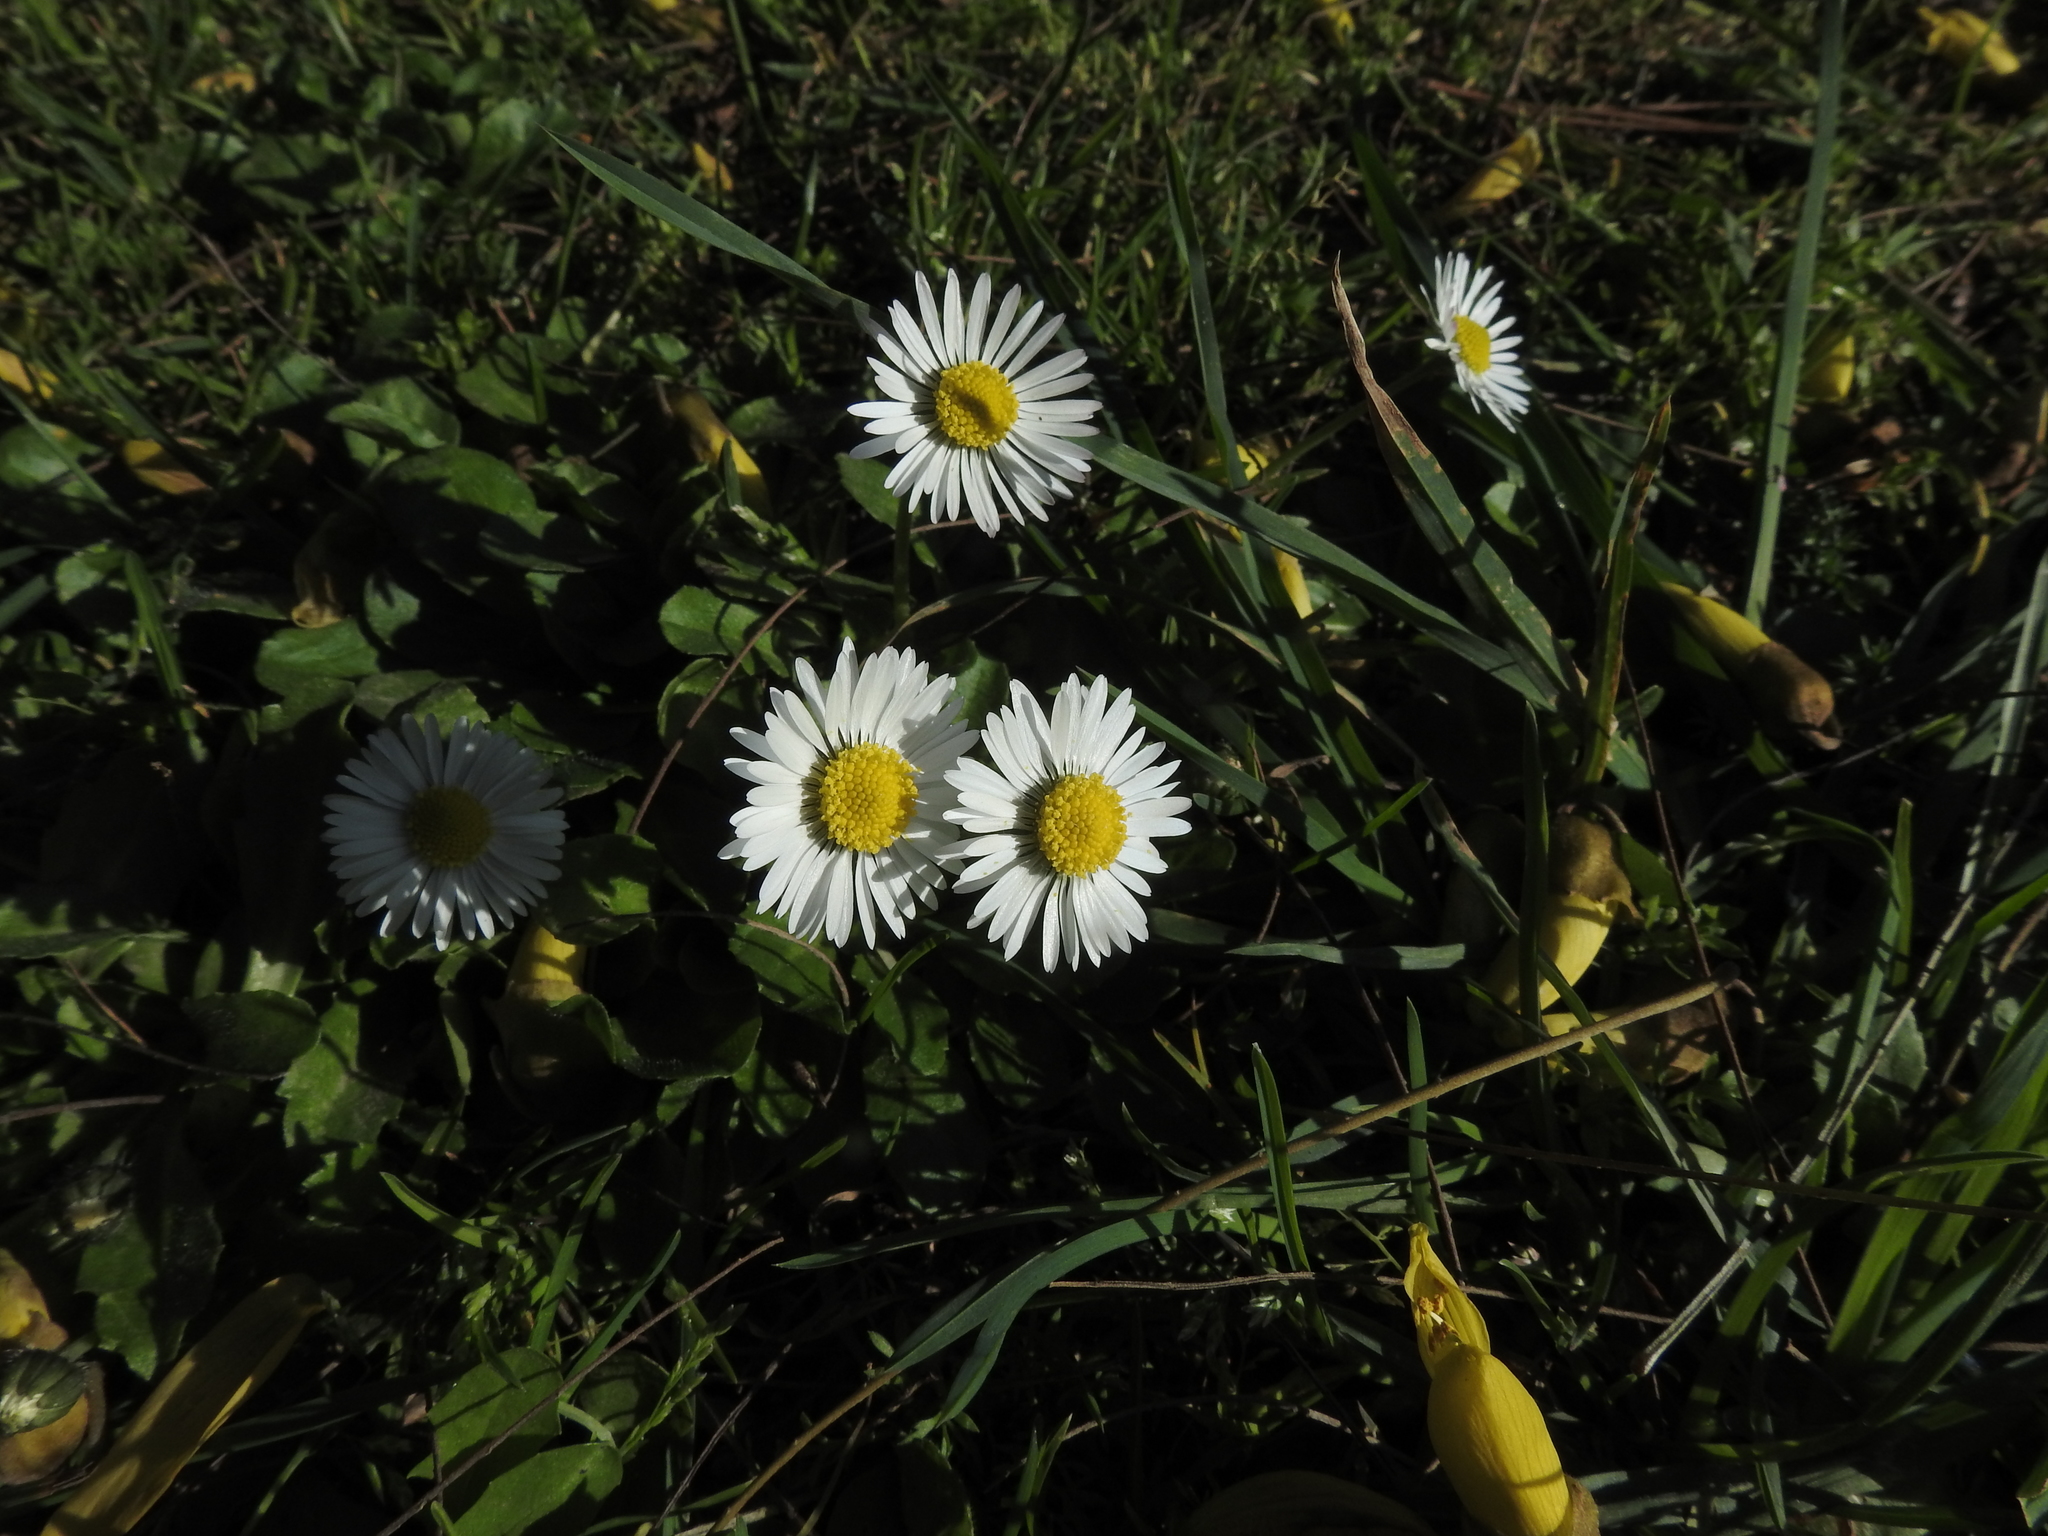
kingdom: Plantae
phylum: Tracheophyta
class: Magnoliopsida
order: Asterales
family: Asteraceae
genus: Bellis
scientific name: Bellis perennis
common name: Lawndaisy
